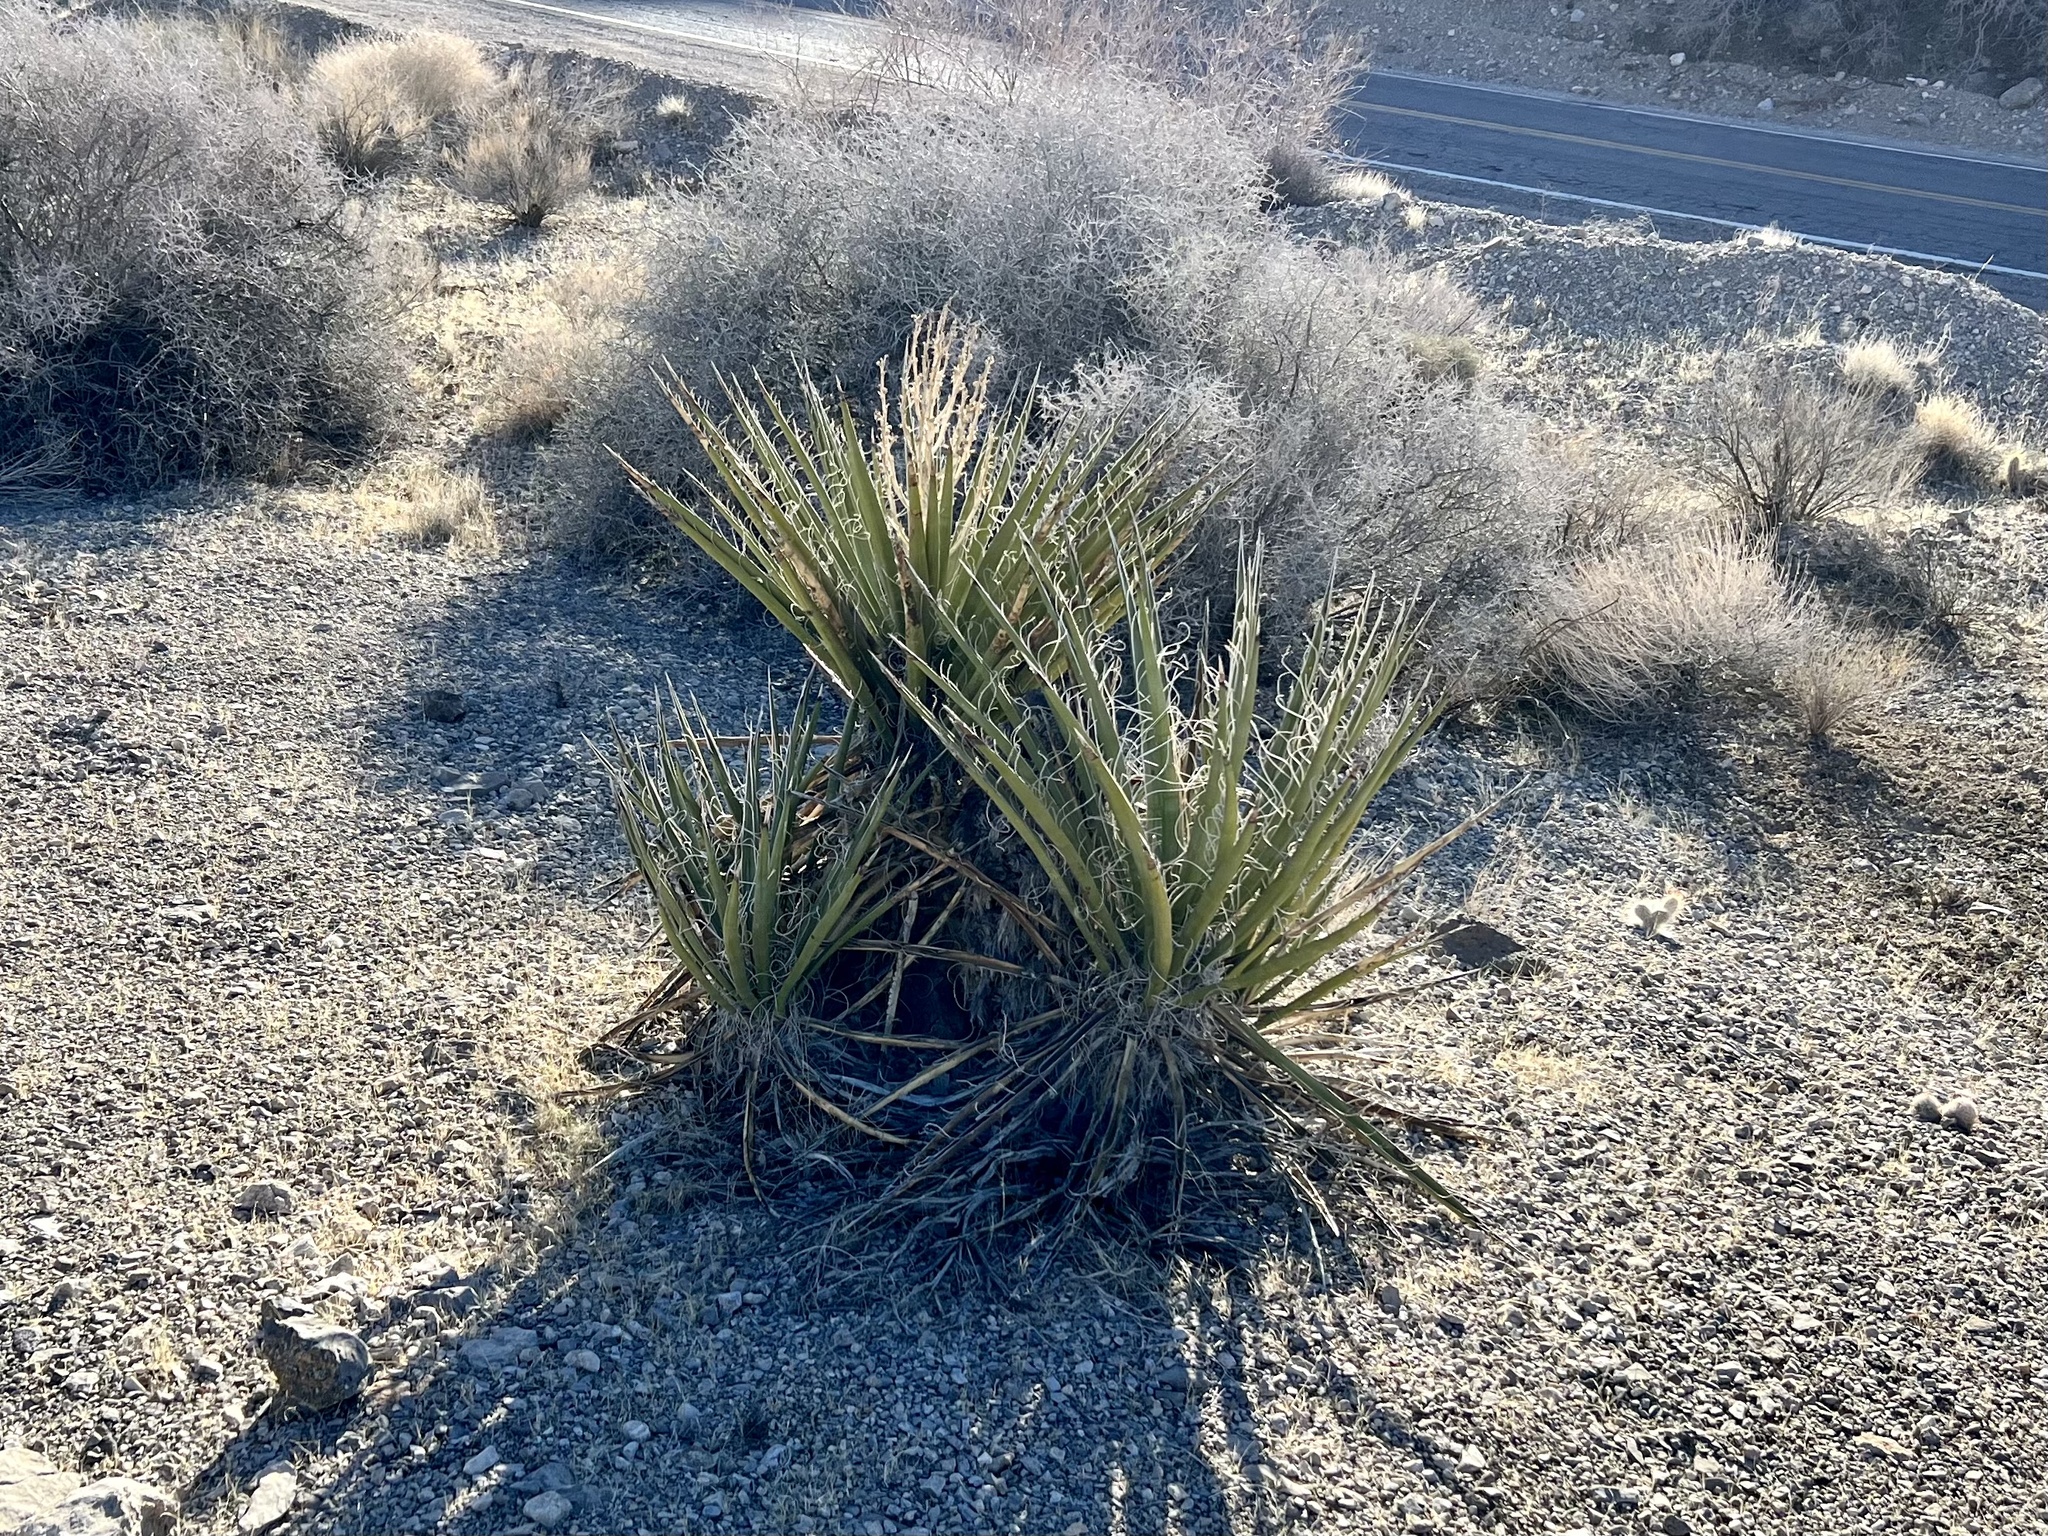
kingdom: Plantae
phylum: Tracheophyta
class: Liliopsida
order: Asparagales
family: Asparagaceae
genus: Yucca
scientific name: Yucca schidigera
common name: Mojave yucca
